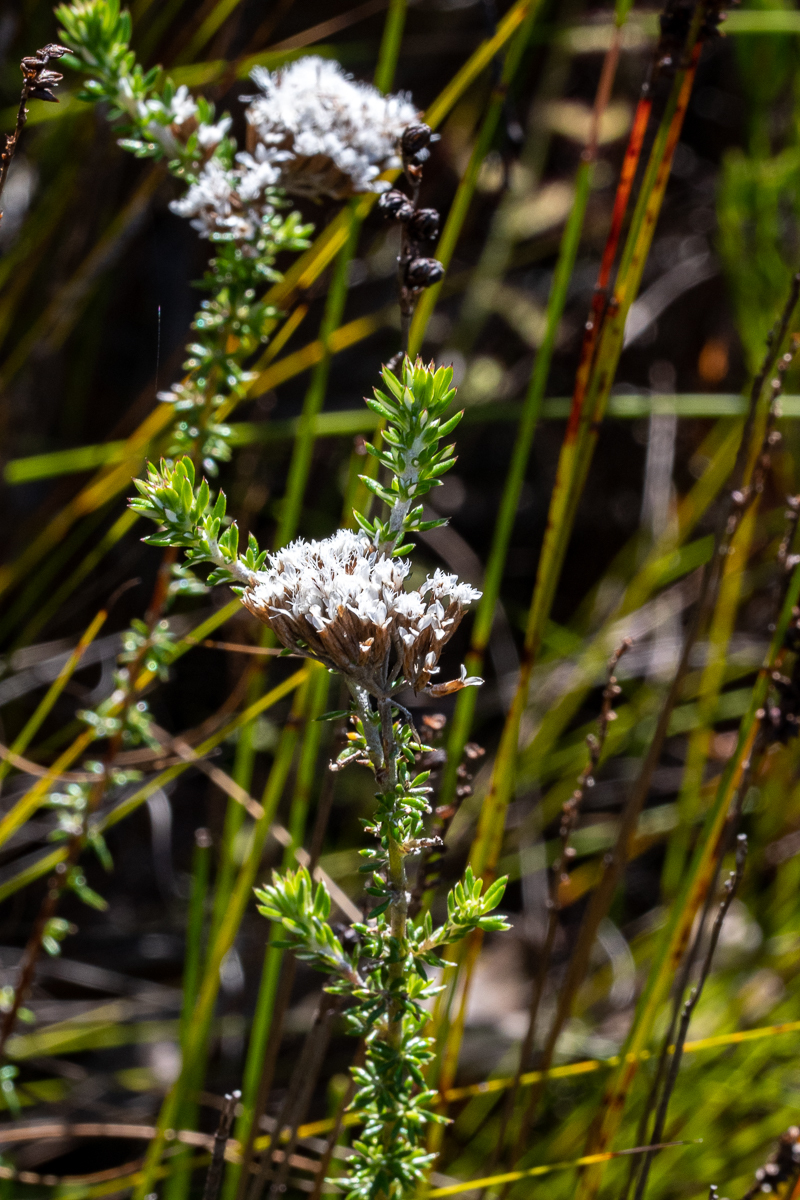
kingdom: Plantae
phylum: Tracheophyta
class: Magnoliopsida
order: Asterales
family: Asteraceae
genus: Metalasia
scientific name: Metalasia lichtensteinii
